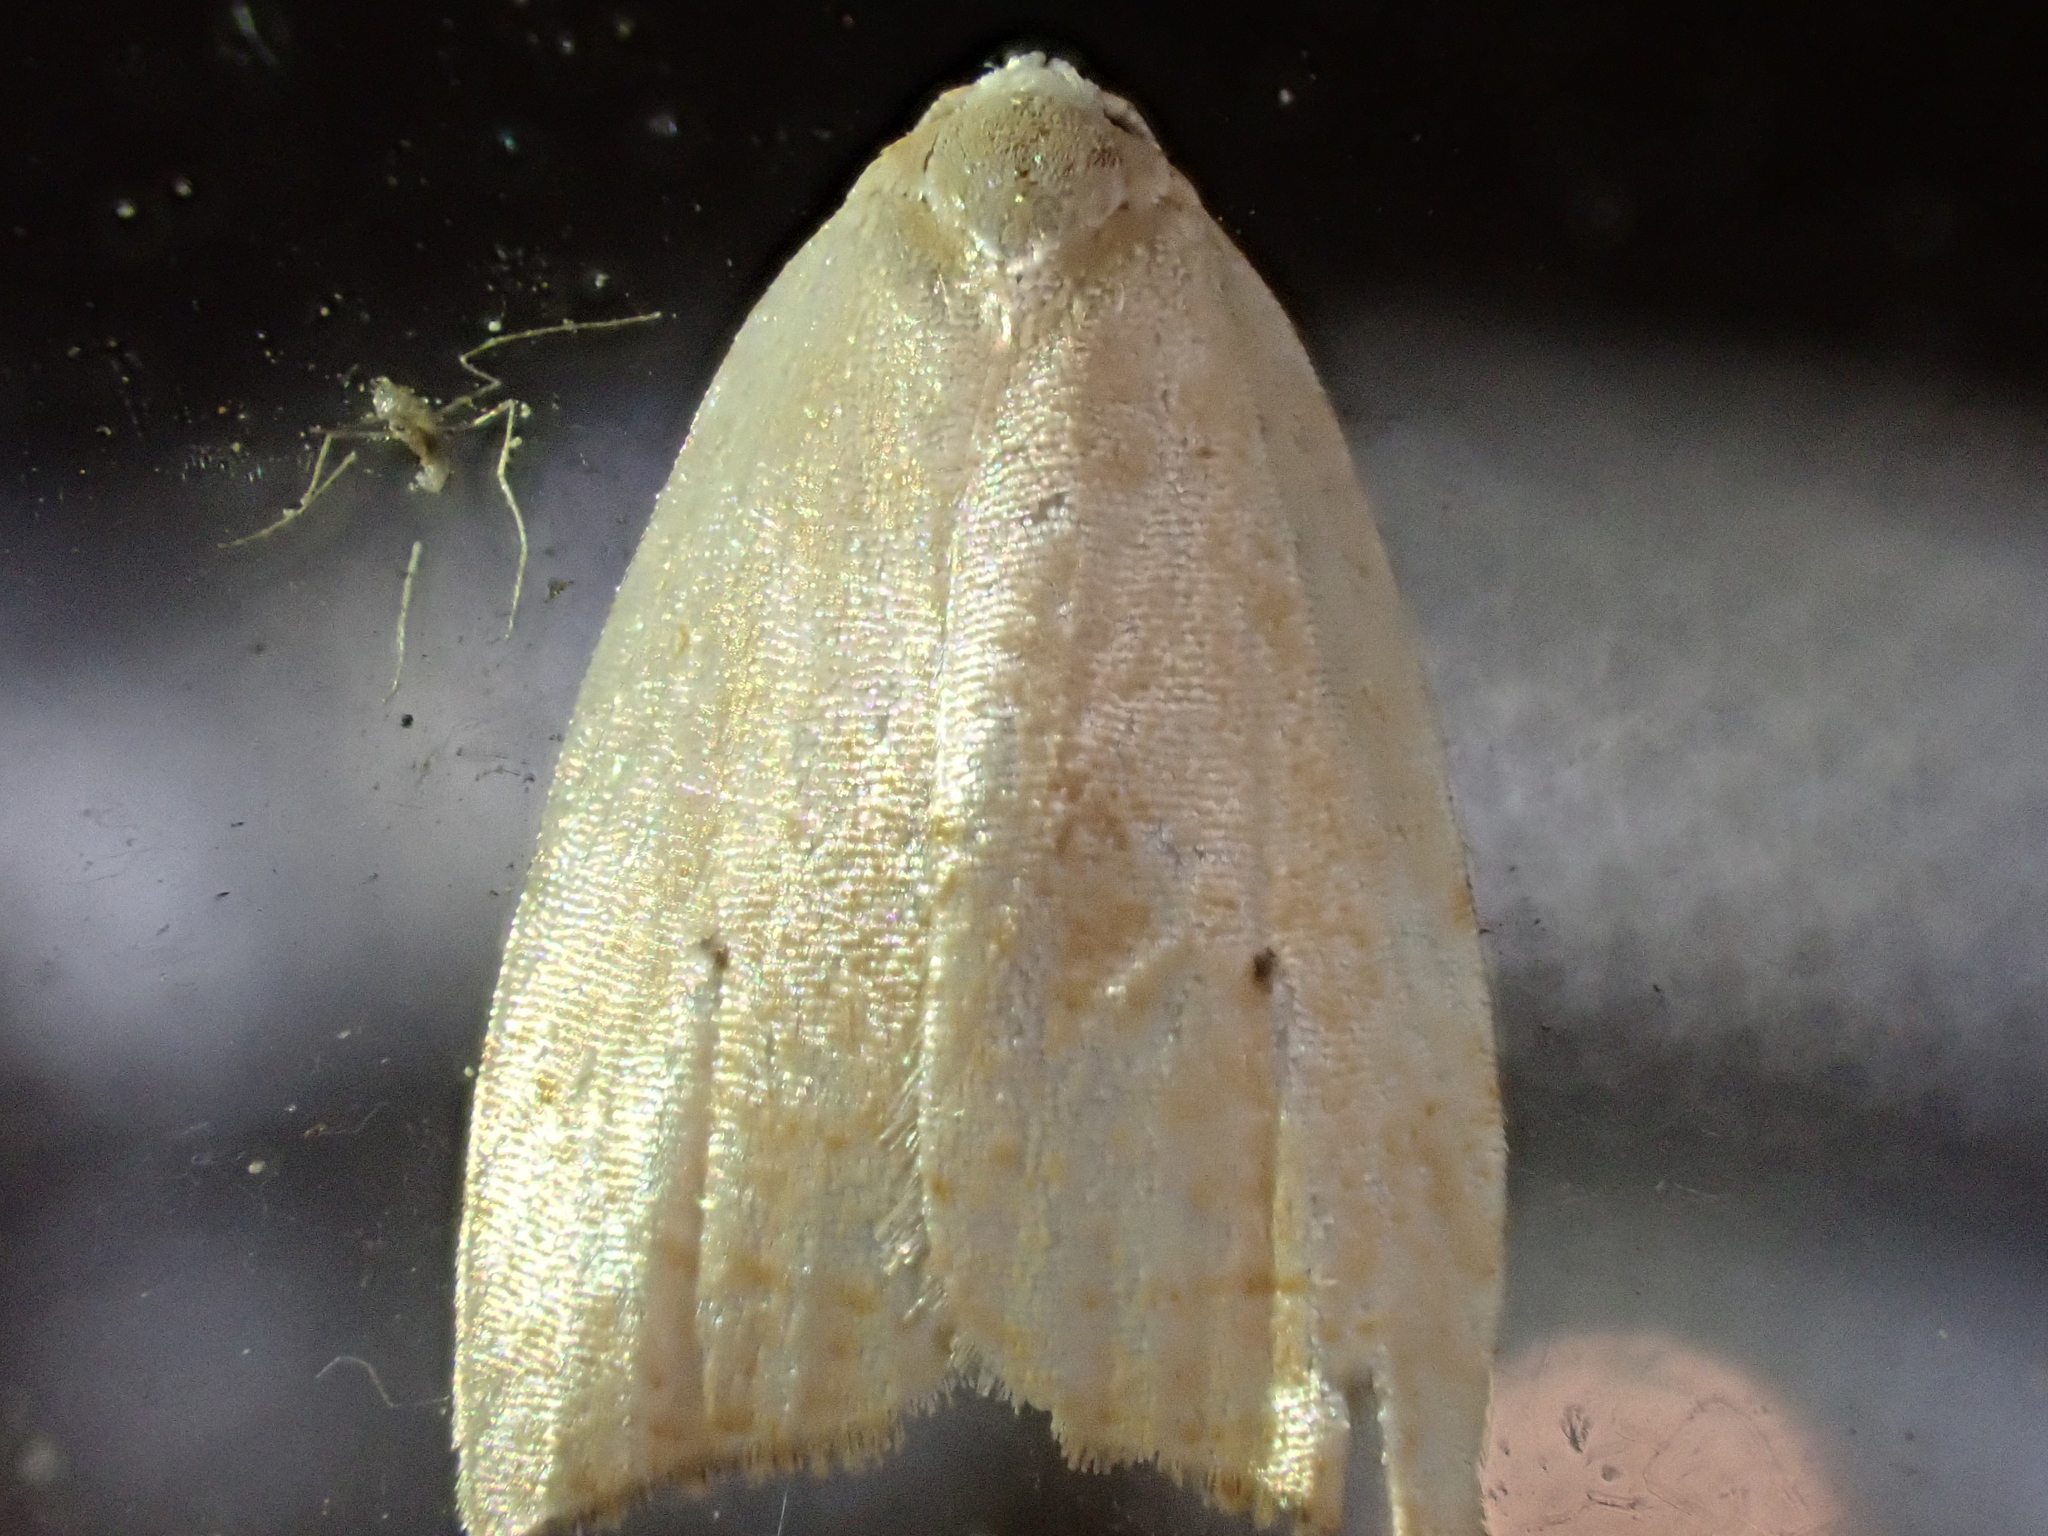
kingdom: Animalia
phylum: Arthropoda
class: Insecta
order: Lepidoptera
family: Tortricidae
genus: Coelostathma
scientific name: Coelostathma discopunctana
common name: Batman moth
